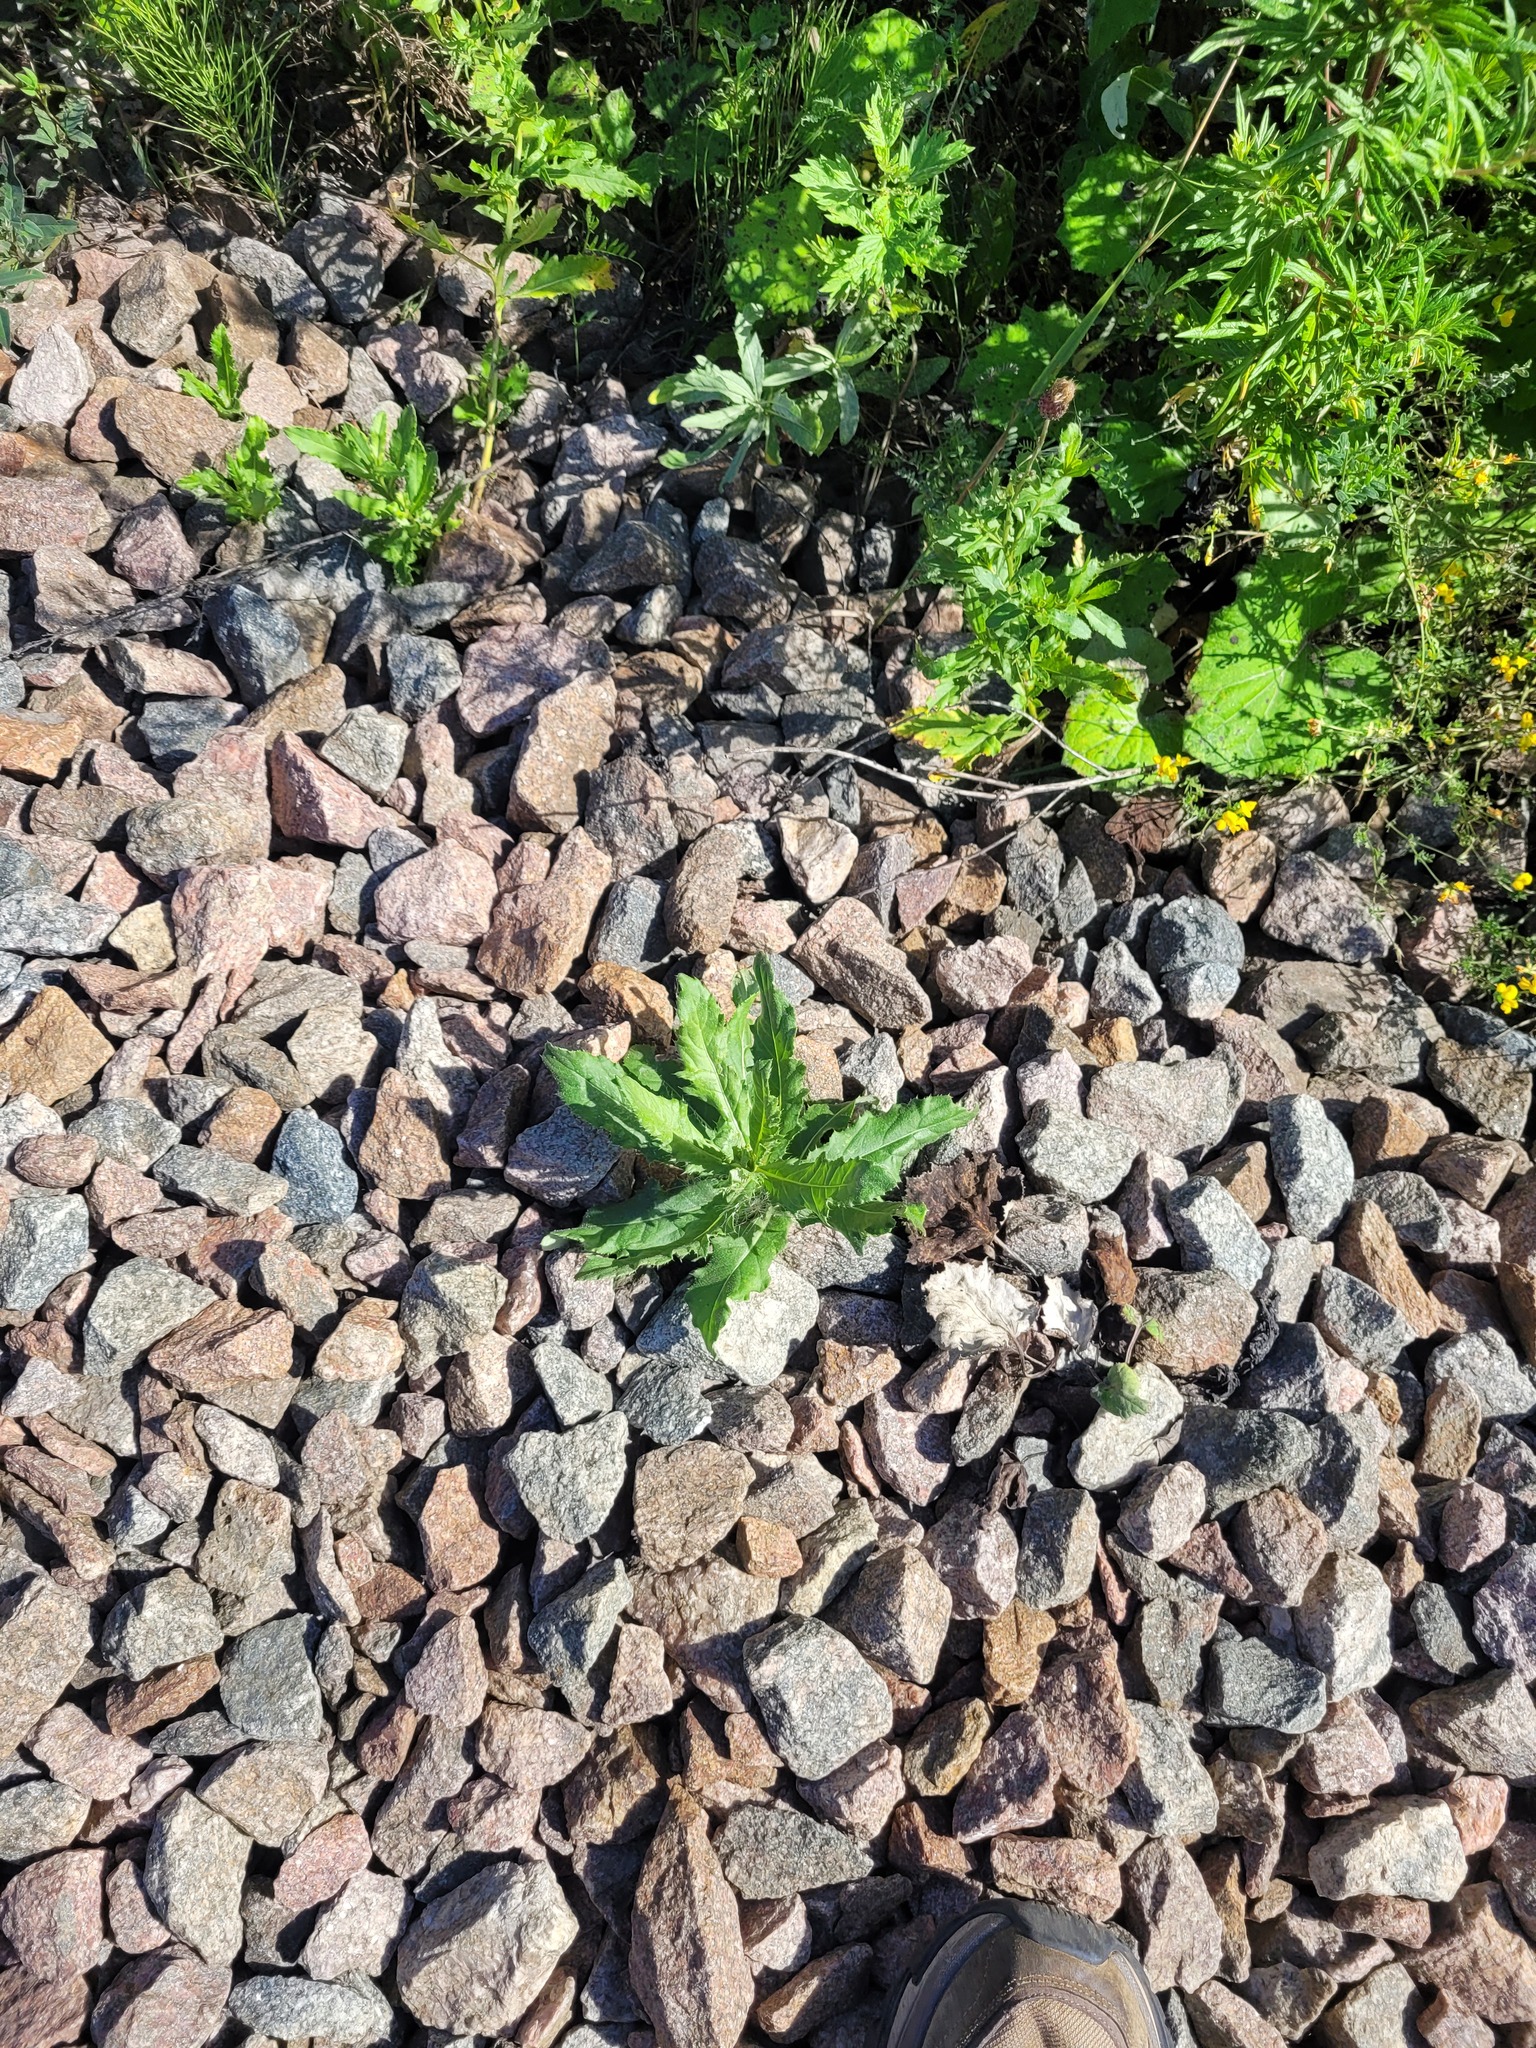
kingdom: Plantae
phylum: Tracheophyta
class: Magnoliopsida
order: Asterales
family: Asteraceae
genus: Cirsium
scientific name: Cirsium arvense
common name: Creeping thistle
